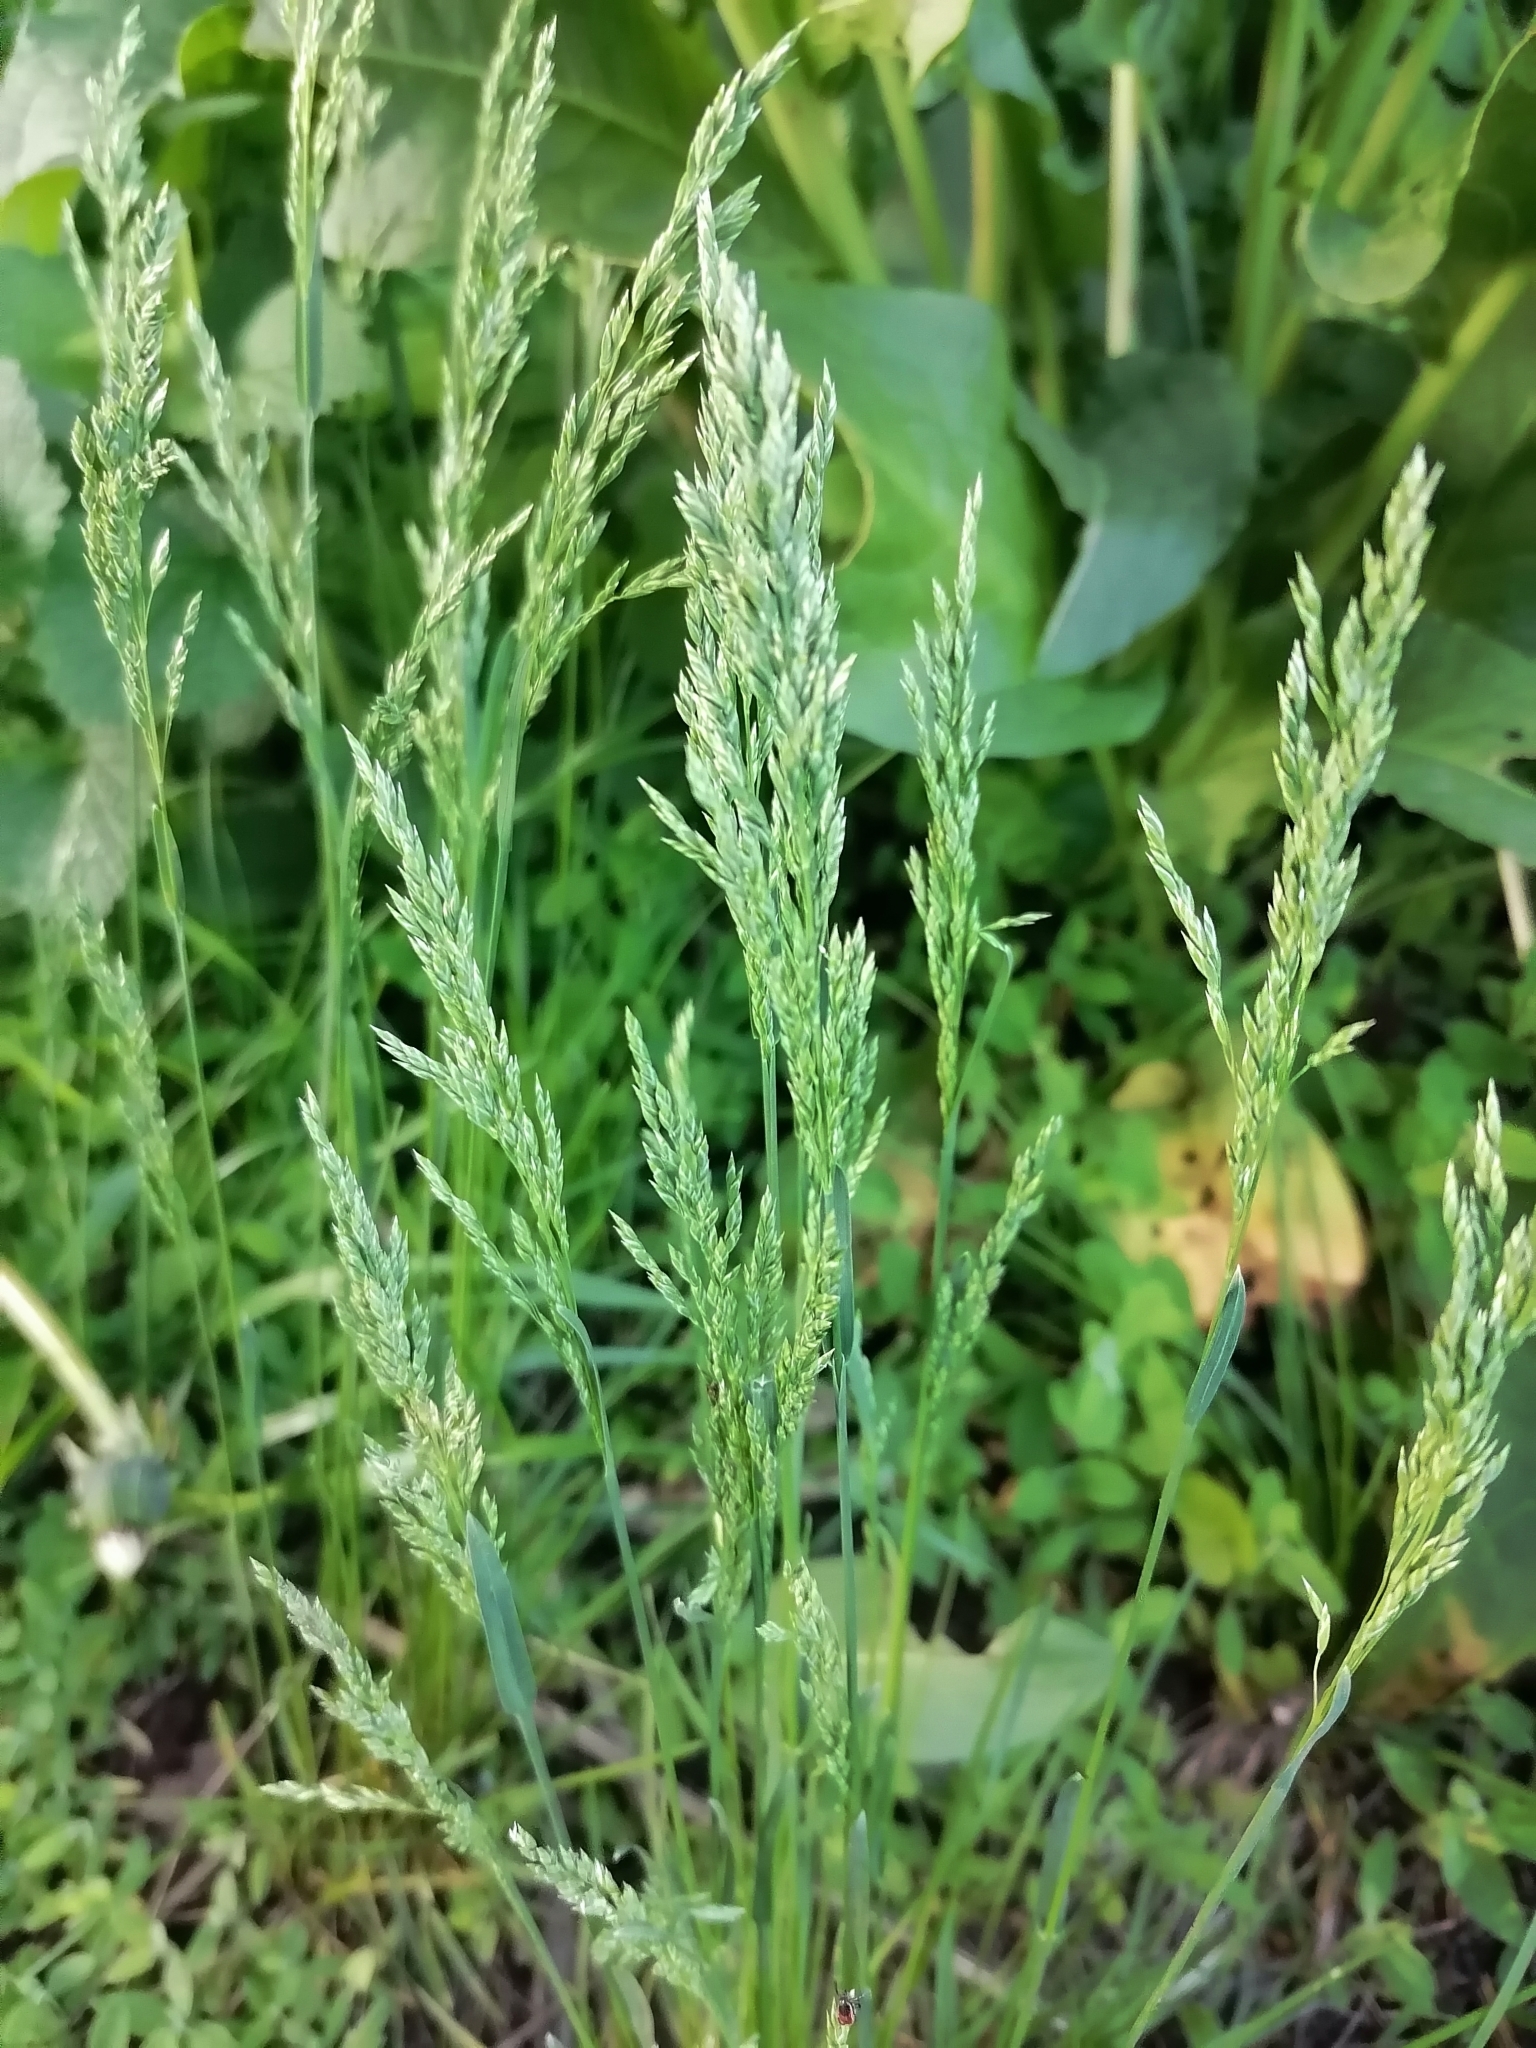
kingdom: Plantae
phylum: Tracheophyta
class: Liliopsida
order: Poales
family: Poaceae
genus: Poa
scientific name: Poa pratensis
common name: Kentucky bluegrass
